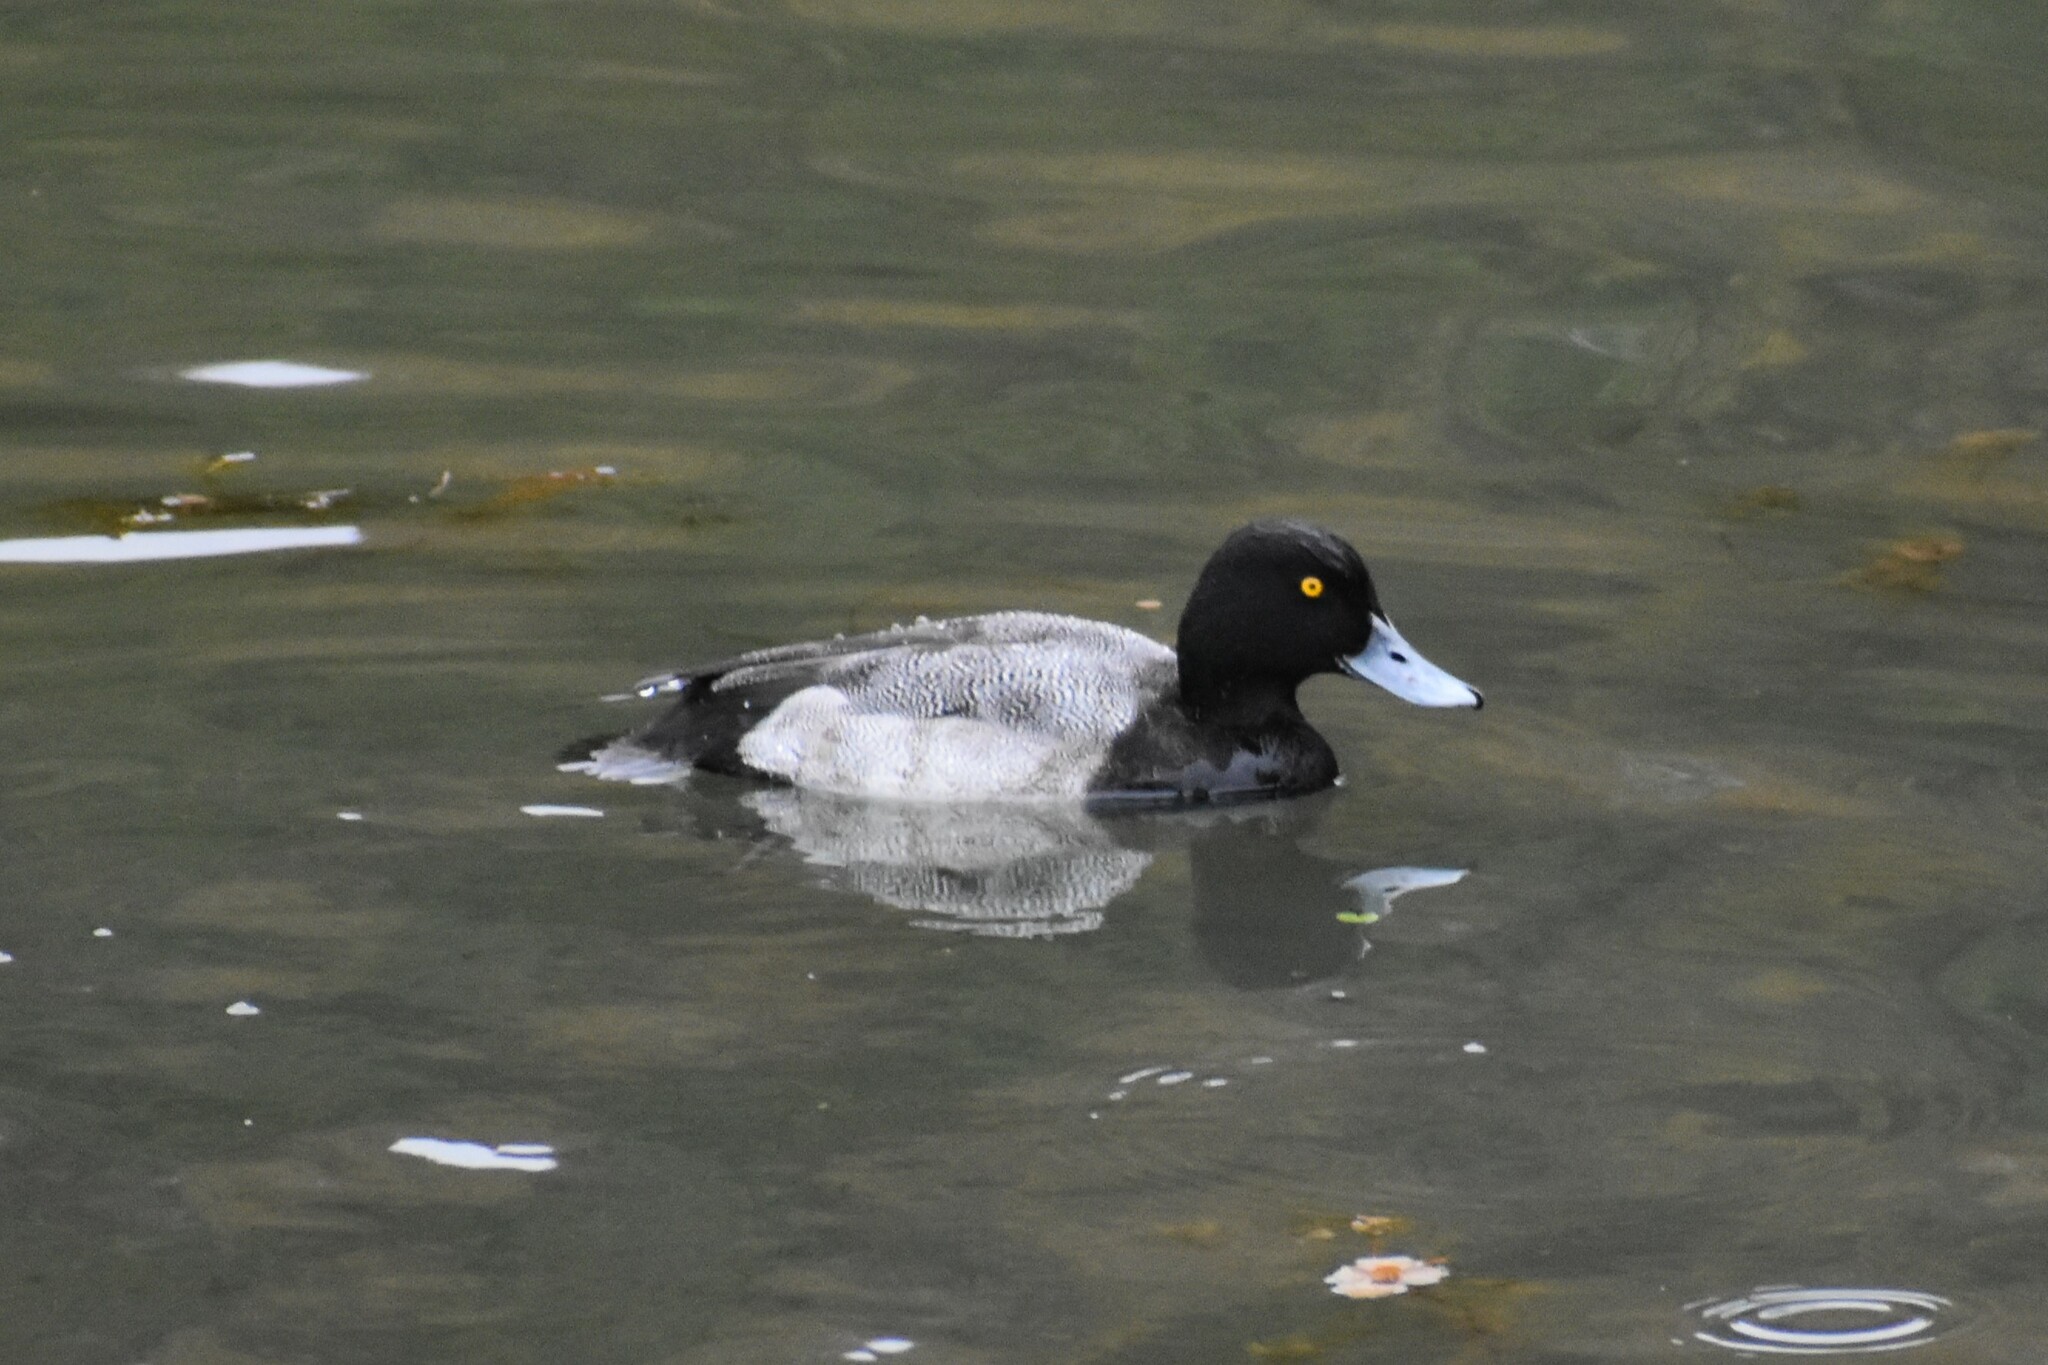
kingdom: Animalia
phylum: Chordata
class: Aves
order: Anseriformes
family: Anatidae
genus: Aythya
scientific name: Aythya affinis
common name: Lesser scaup
